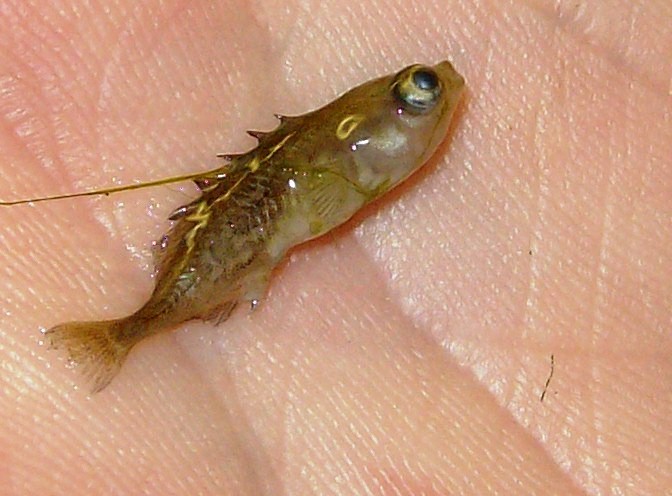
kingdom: Animalia
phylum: Chordata
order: Gasterosteiformes
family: Gasterosteidae
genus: Culaea
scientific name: Culaea inconstans
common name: Brook stickleback
